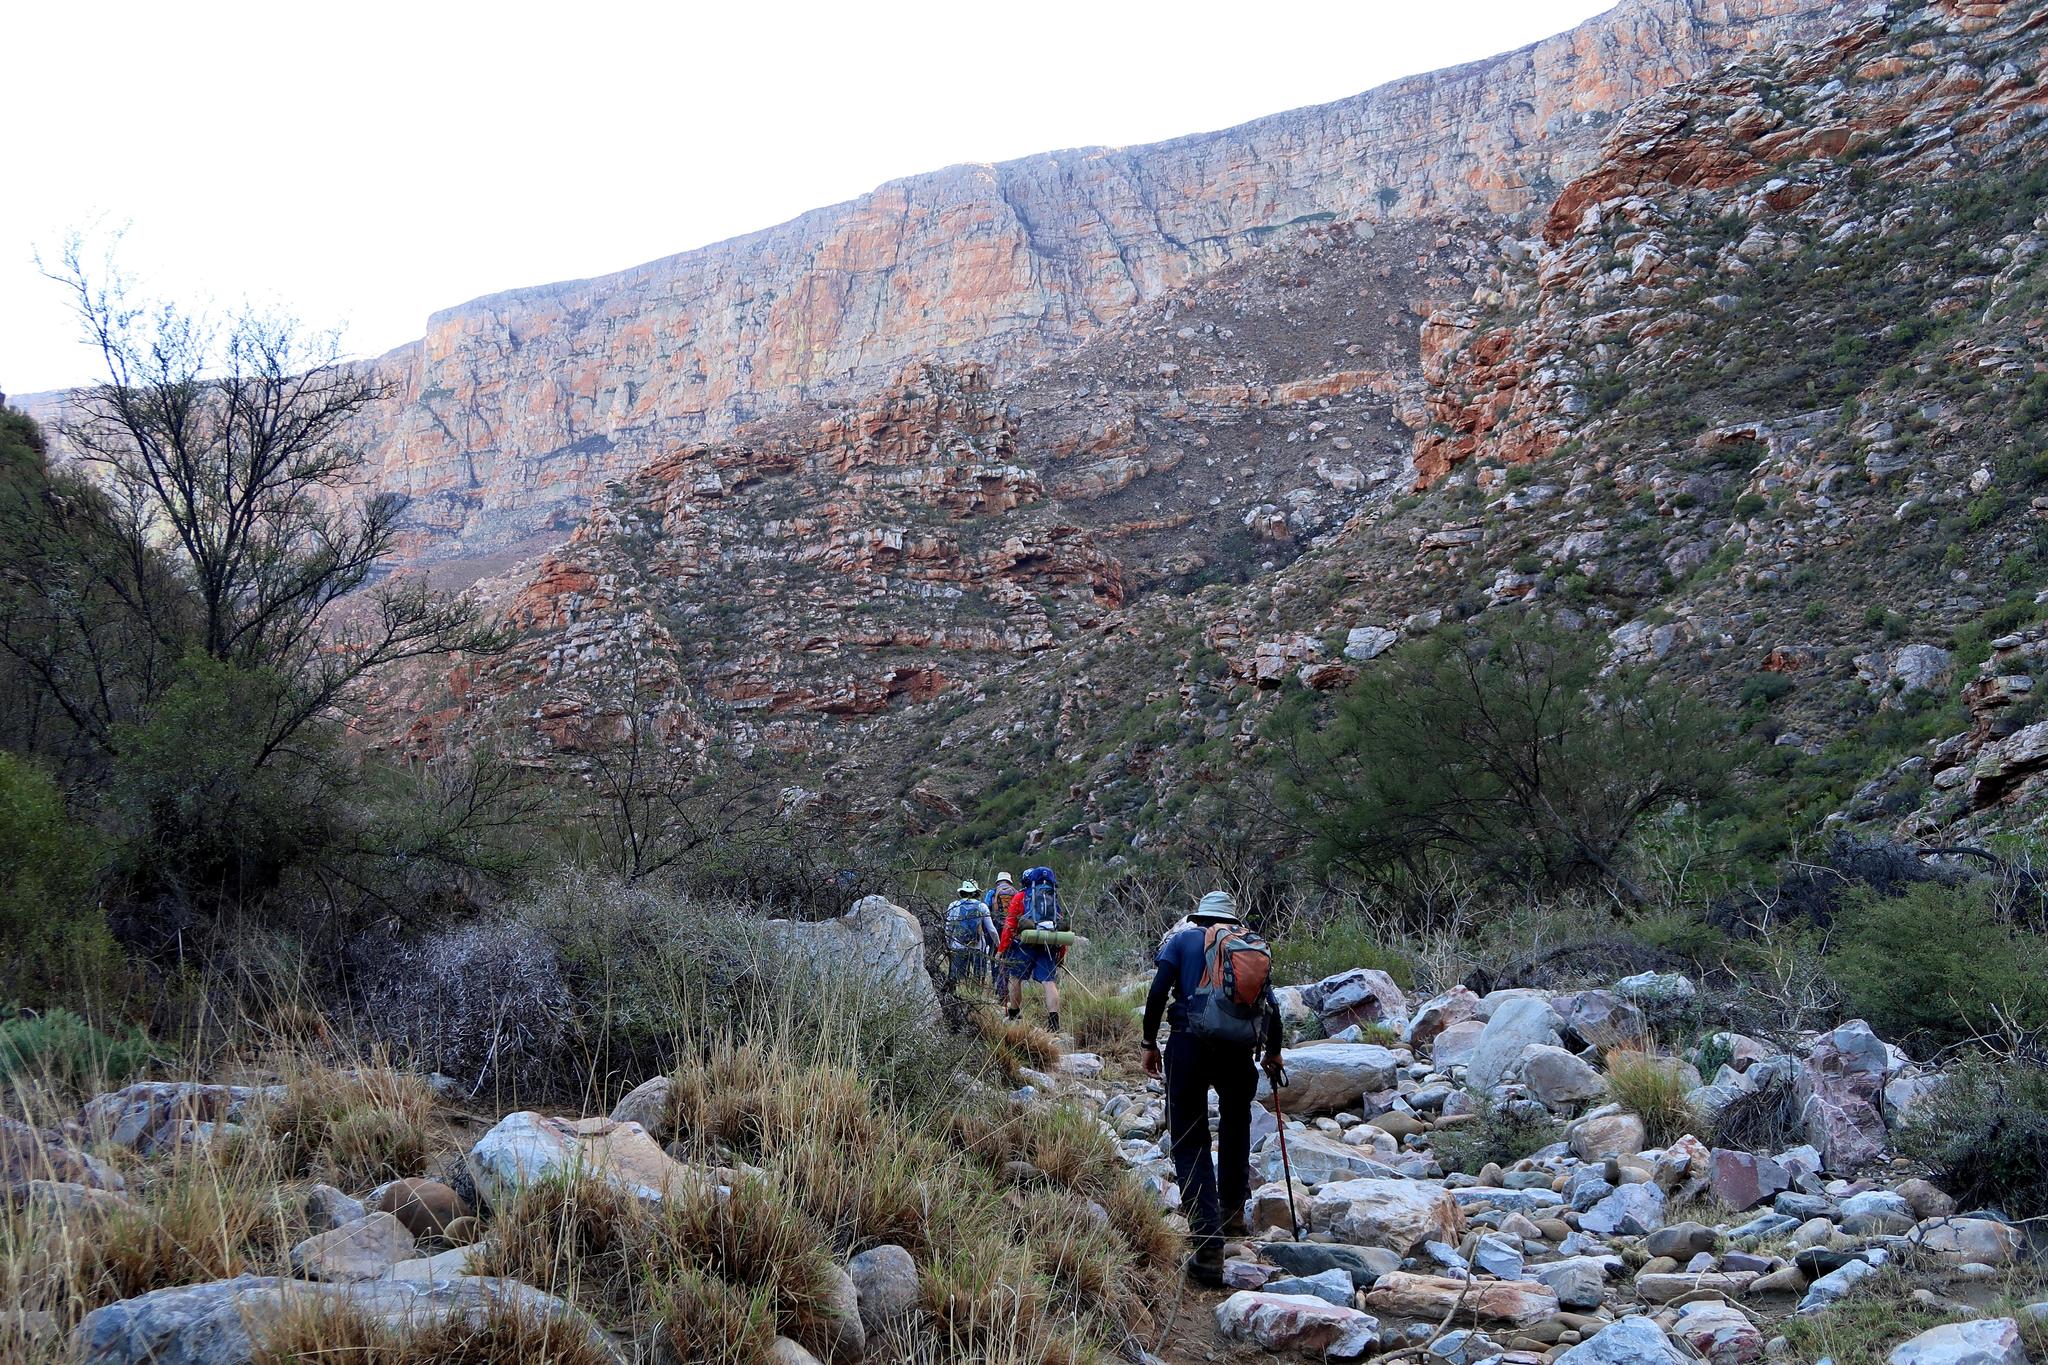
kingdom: Plantae
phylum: Tracheophyta
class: Magnoliopsida
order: Fabales
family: Fabaceae
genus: Vachellia
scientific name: Vachellia karroo
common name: Sweet thorn
